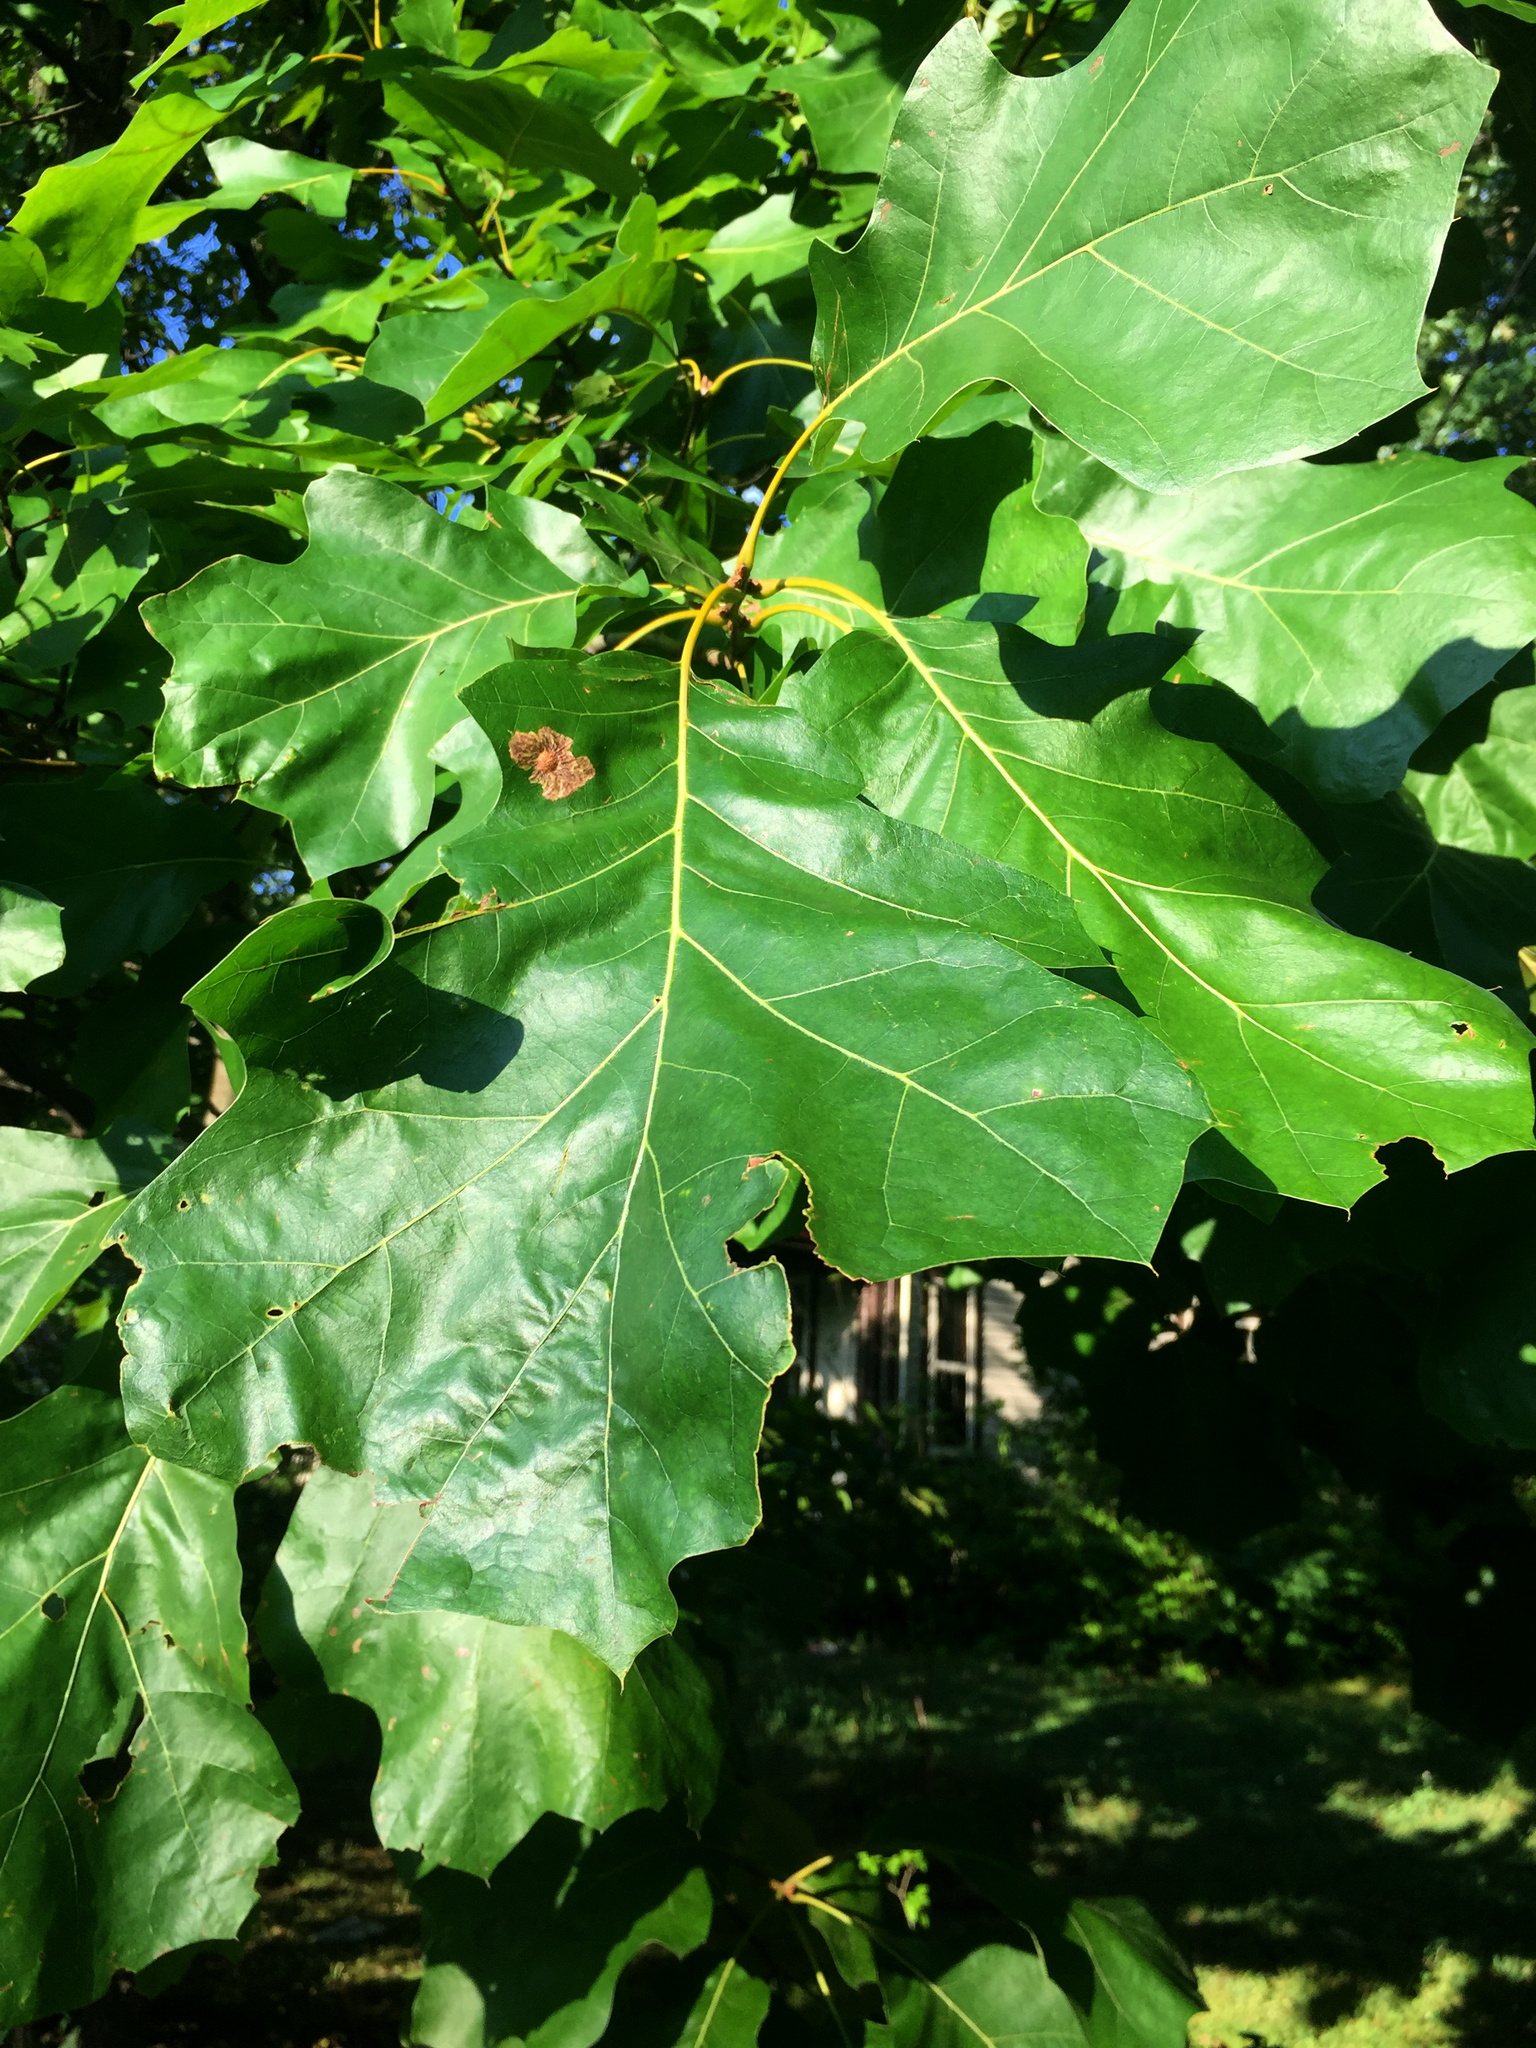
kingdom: Animalia
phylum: Arthropoda
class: Insecta
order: Lepidoptera
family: Tischeriidae
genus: Tischeria
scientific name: Tischeria quercitella
